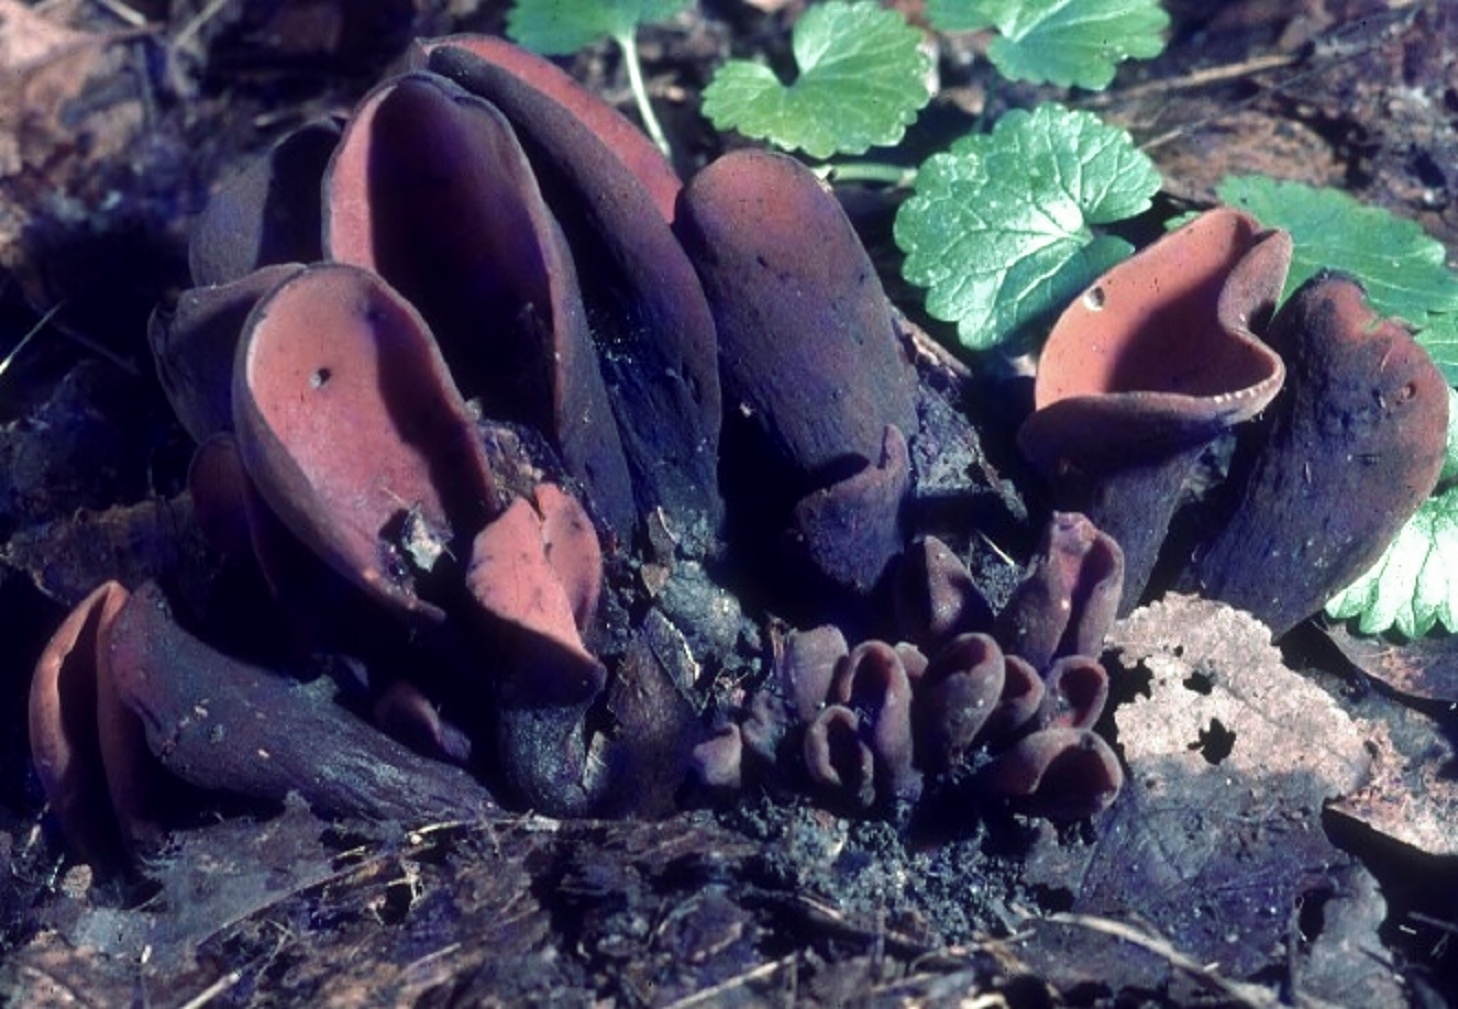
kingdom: Fungi
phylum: Ascomycota
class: Pezizomycetes
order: Pezizales
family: Wynneaceae
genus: Wynnea
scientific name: Wynnea americana
